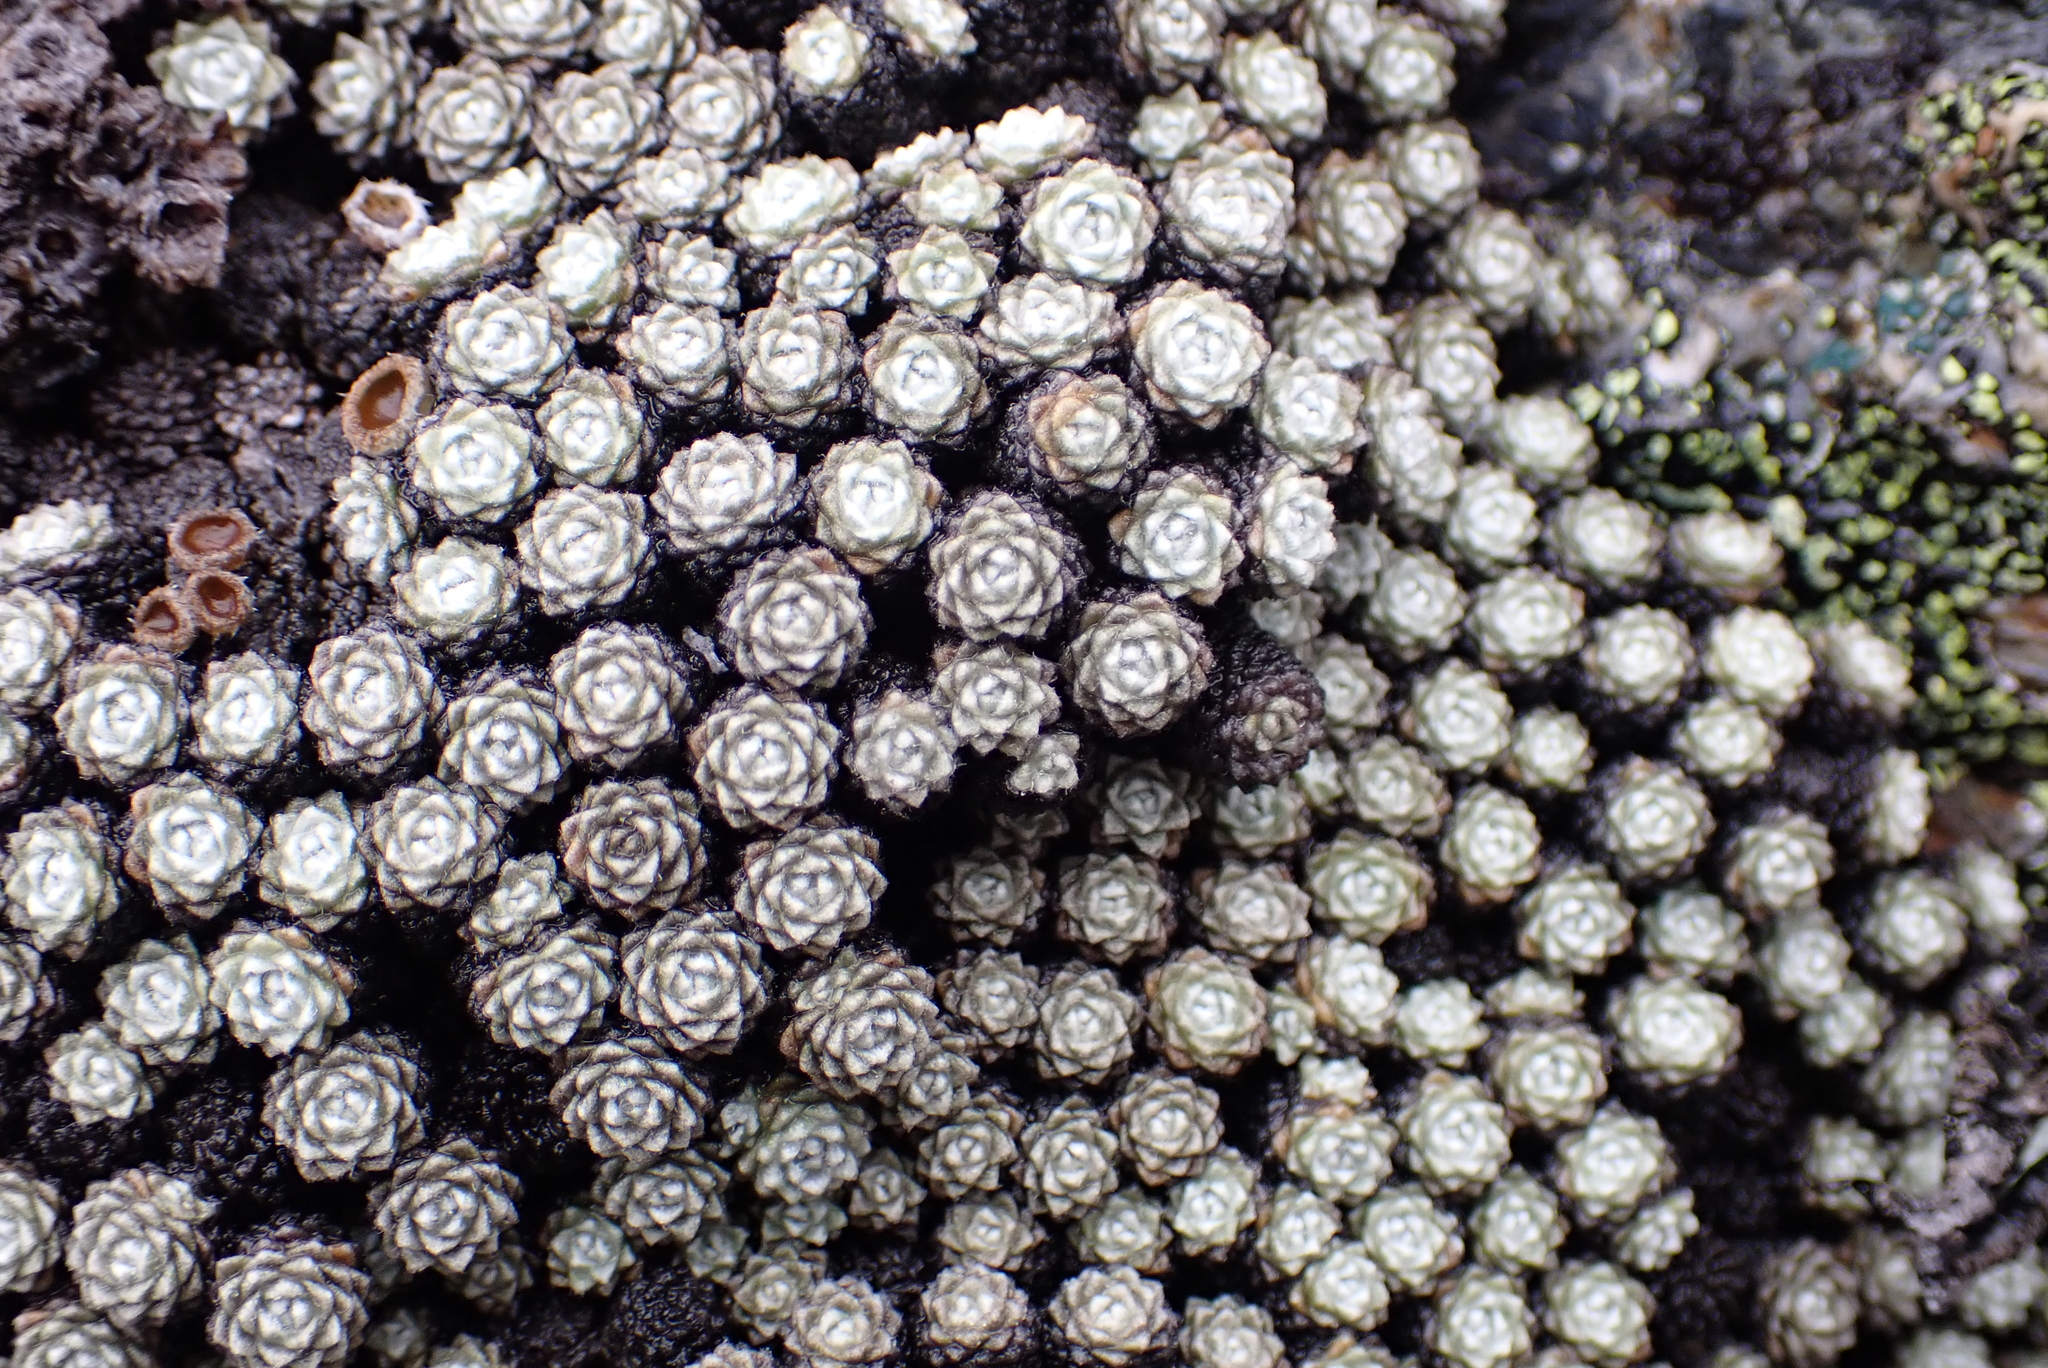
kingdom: Plantae
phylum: Tracheophyta
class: Magnoliopsida
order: Asterales
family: Asteraceae
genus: Raoulia
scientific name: Raoulia bryoides
